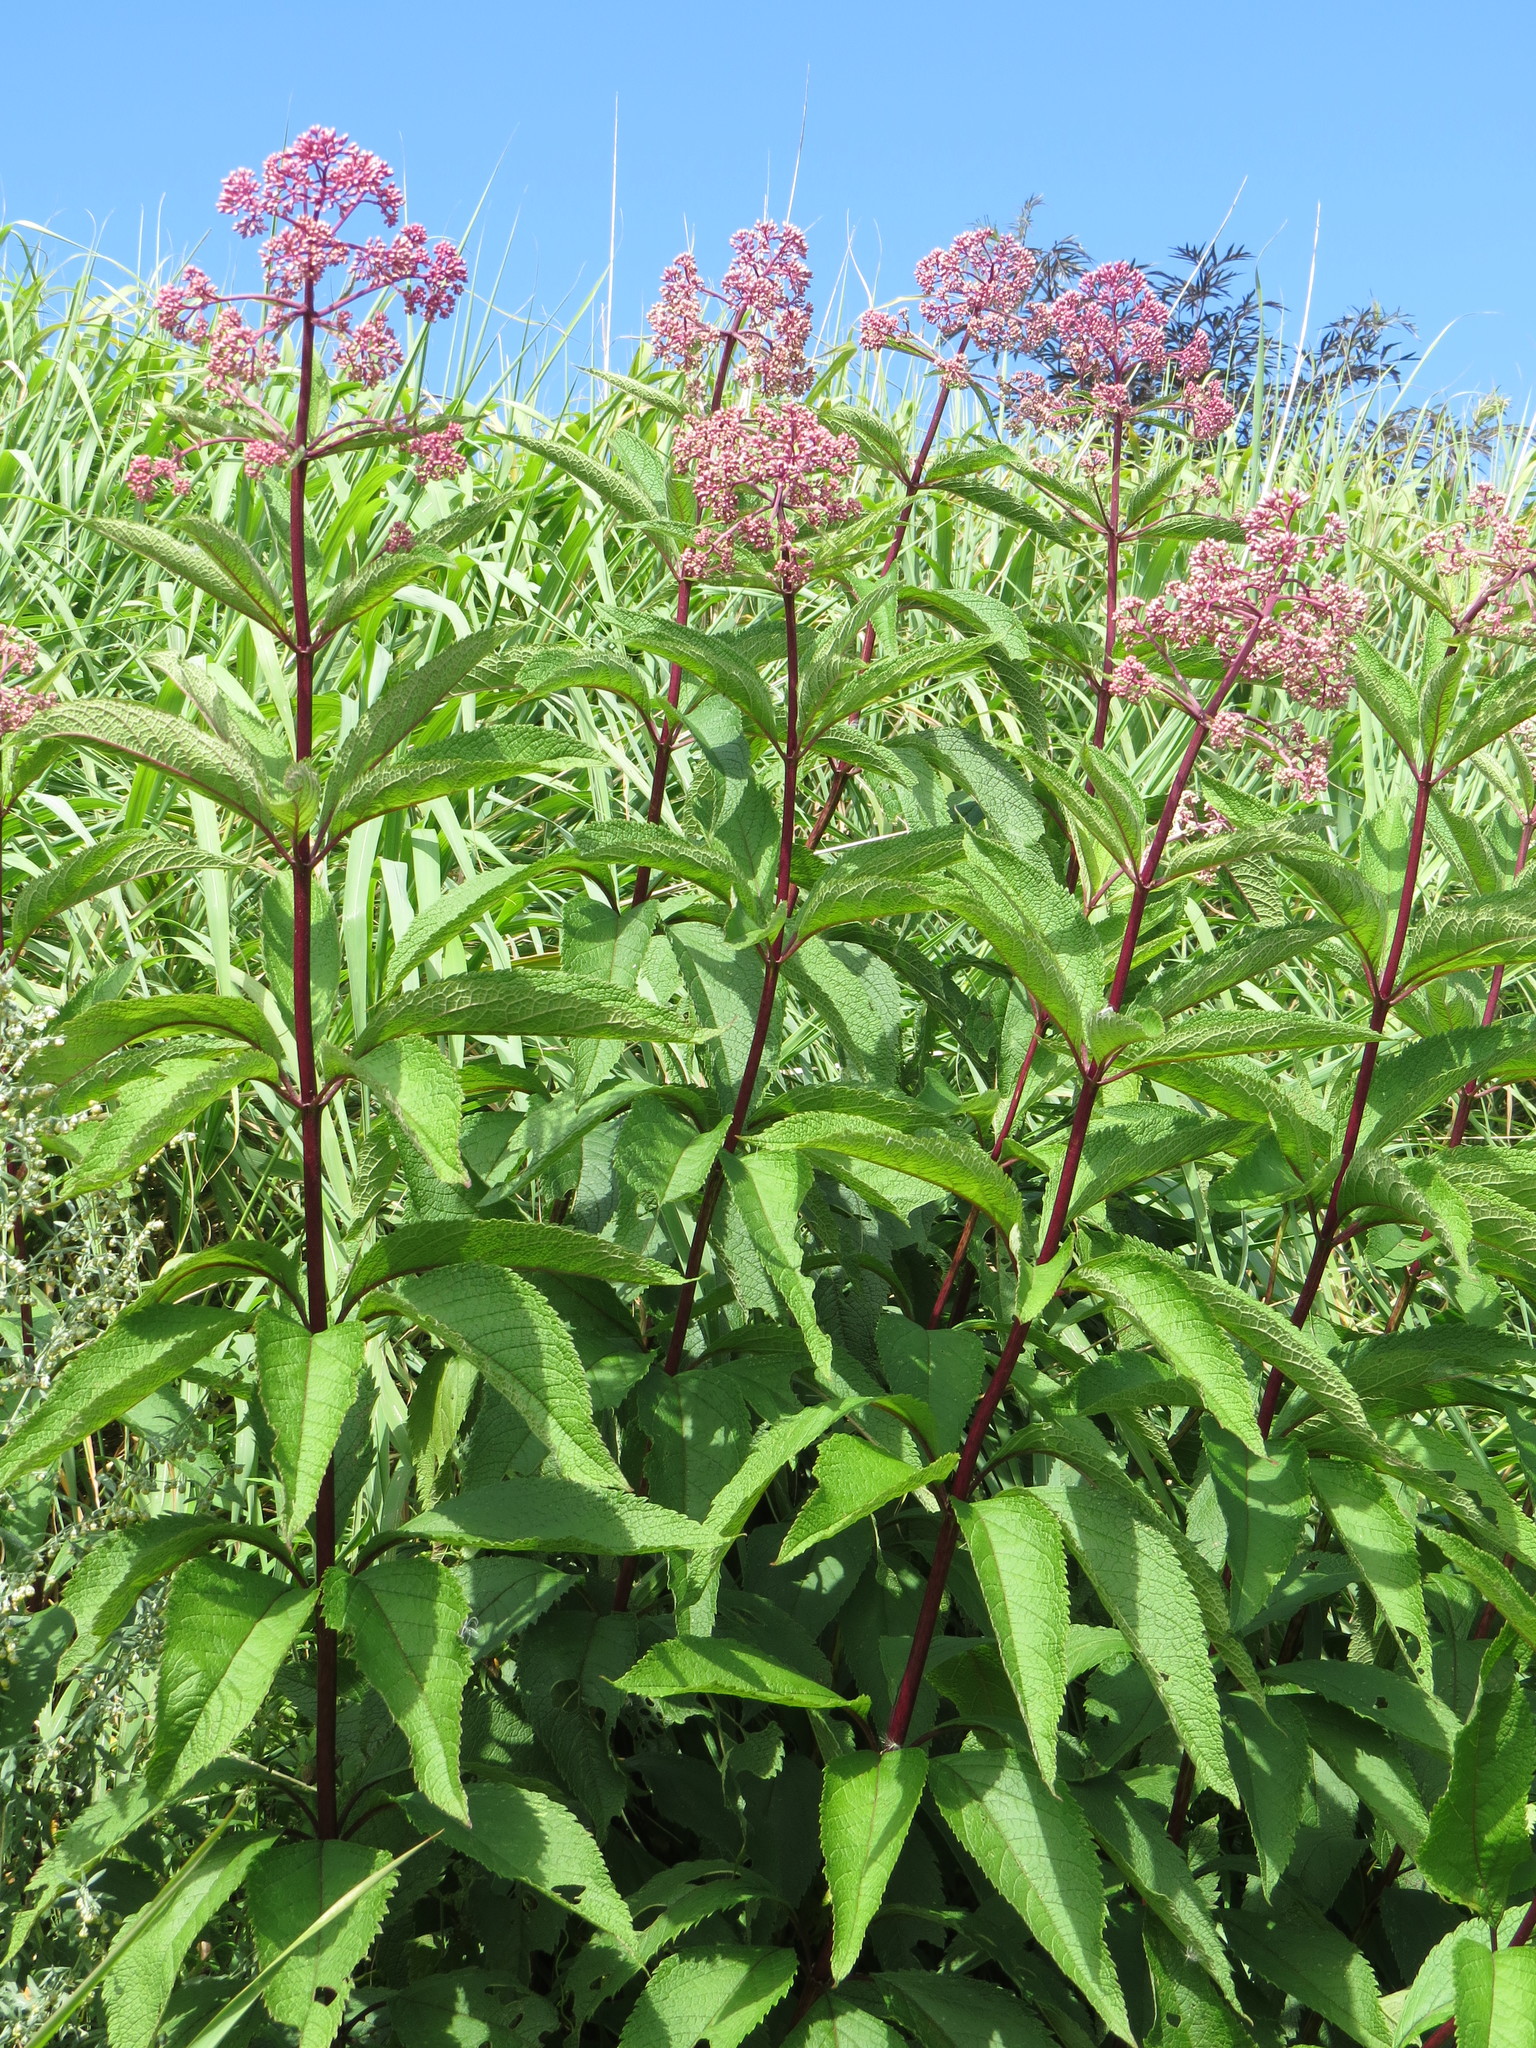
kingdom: Plantae
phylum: Tracheophyta
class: Magnoliopsida
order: Asterales
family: Asteraceae
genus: Eutrochium
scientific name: Eutrochium maculatum
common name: Spotted joe pye weed
